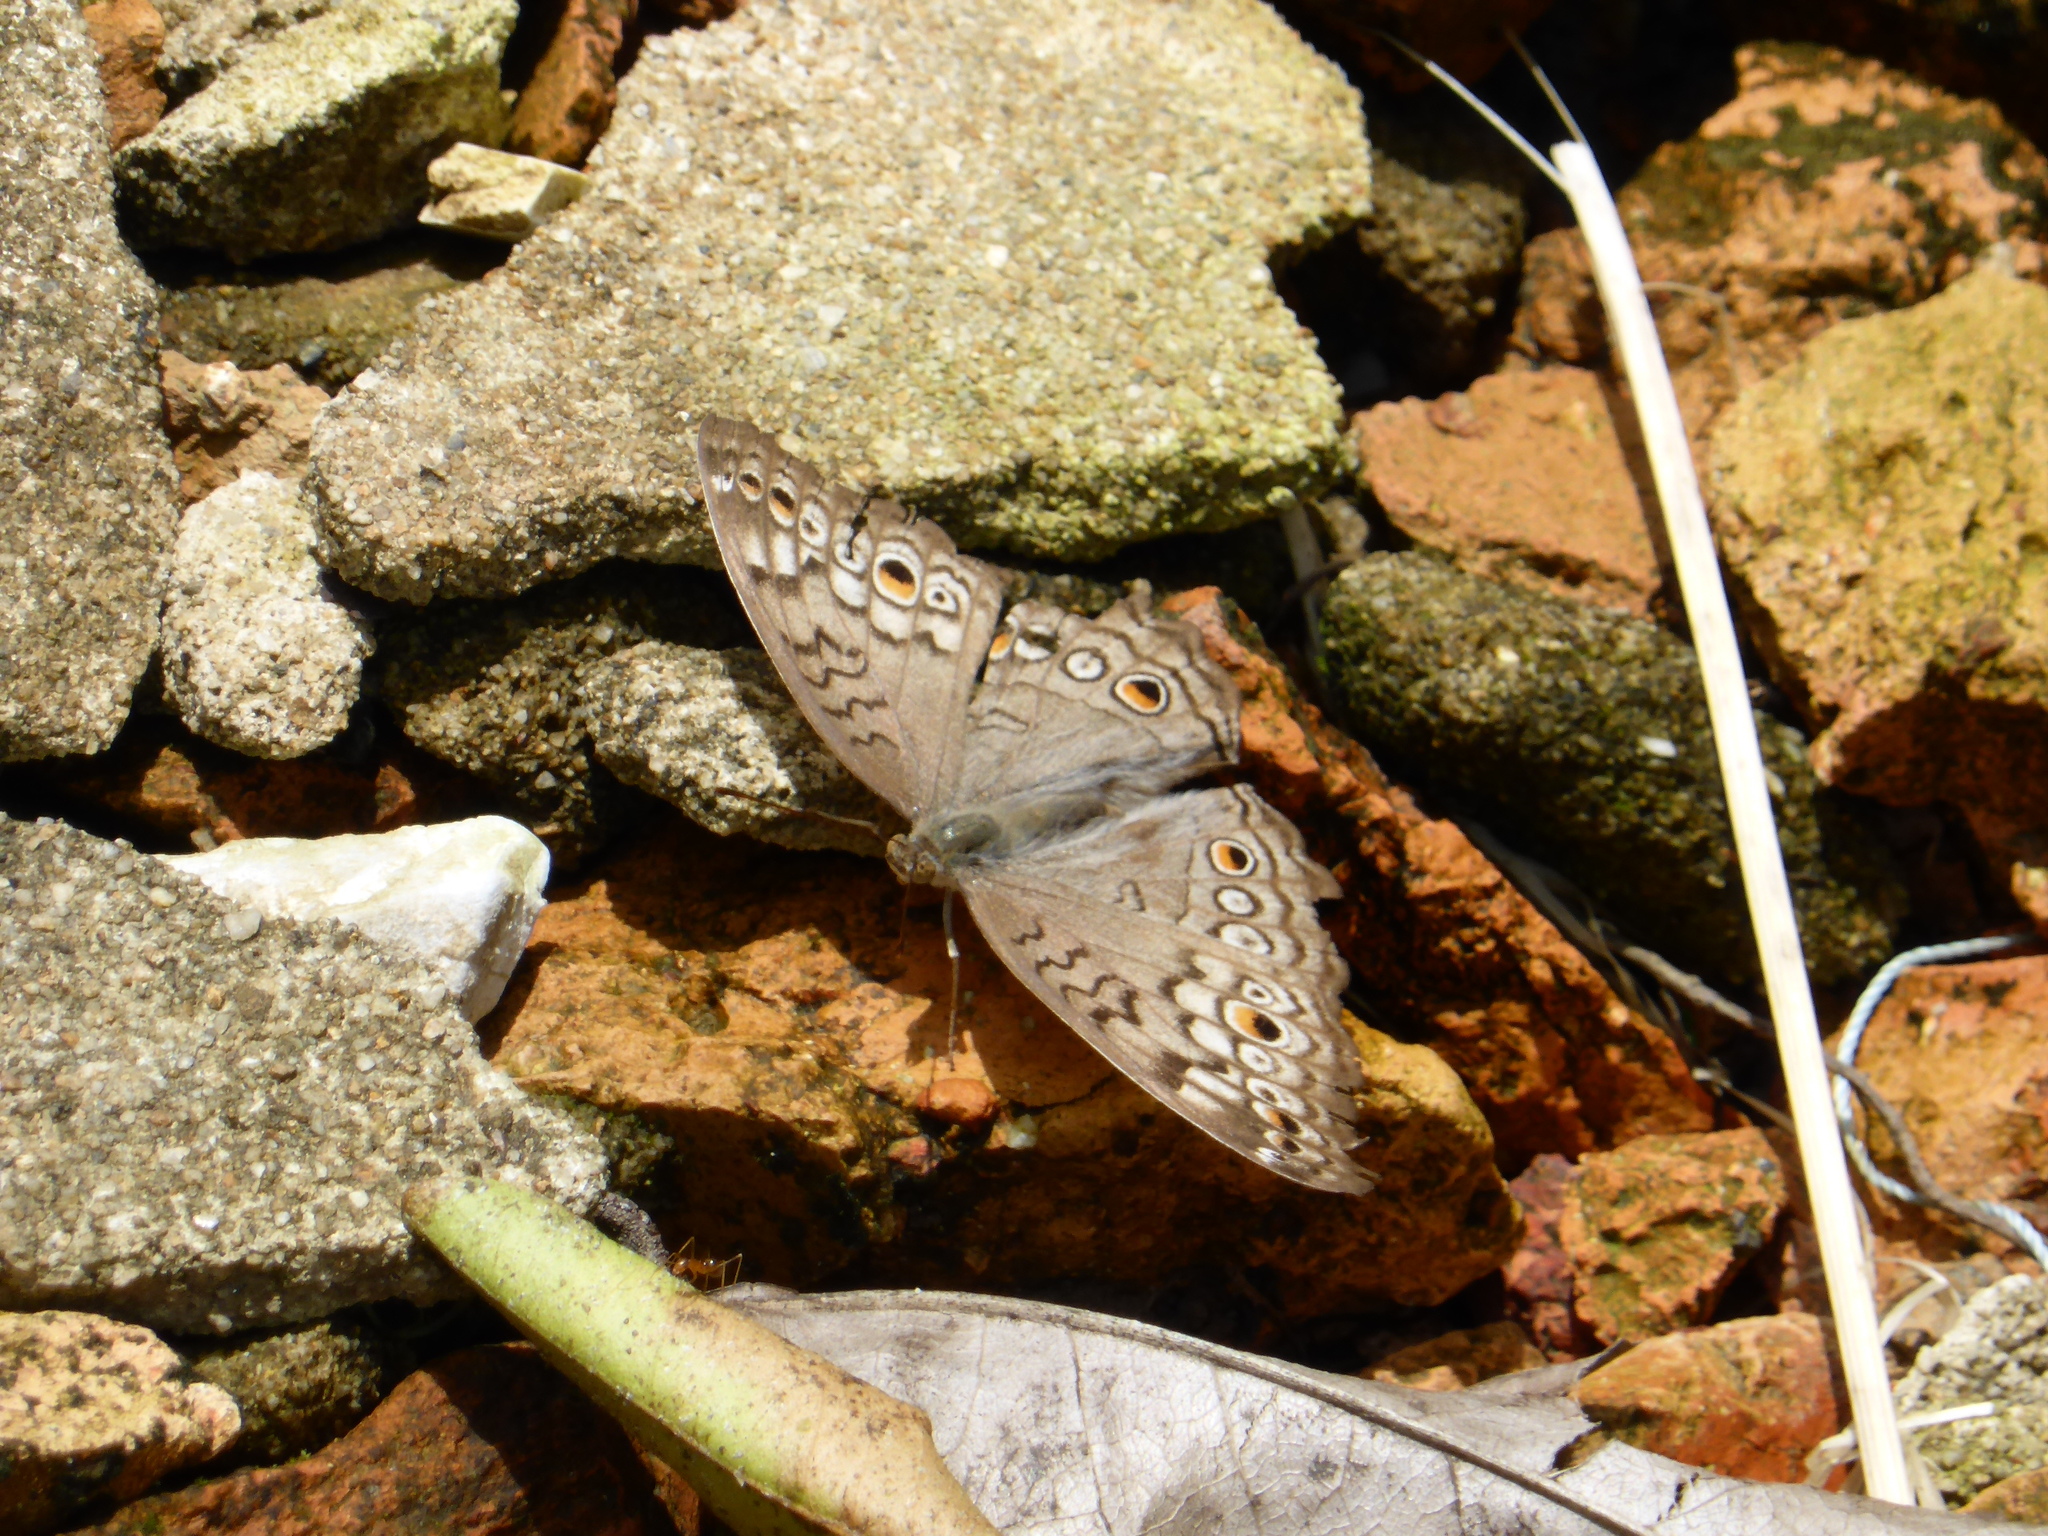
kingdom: Animalia
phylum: Arthropoda
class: Insecta
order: Lepidoptera
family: Nymphalidae
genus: Junonia
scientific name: Junonia atlites
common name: Grey pansy
